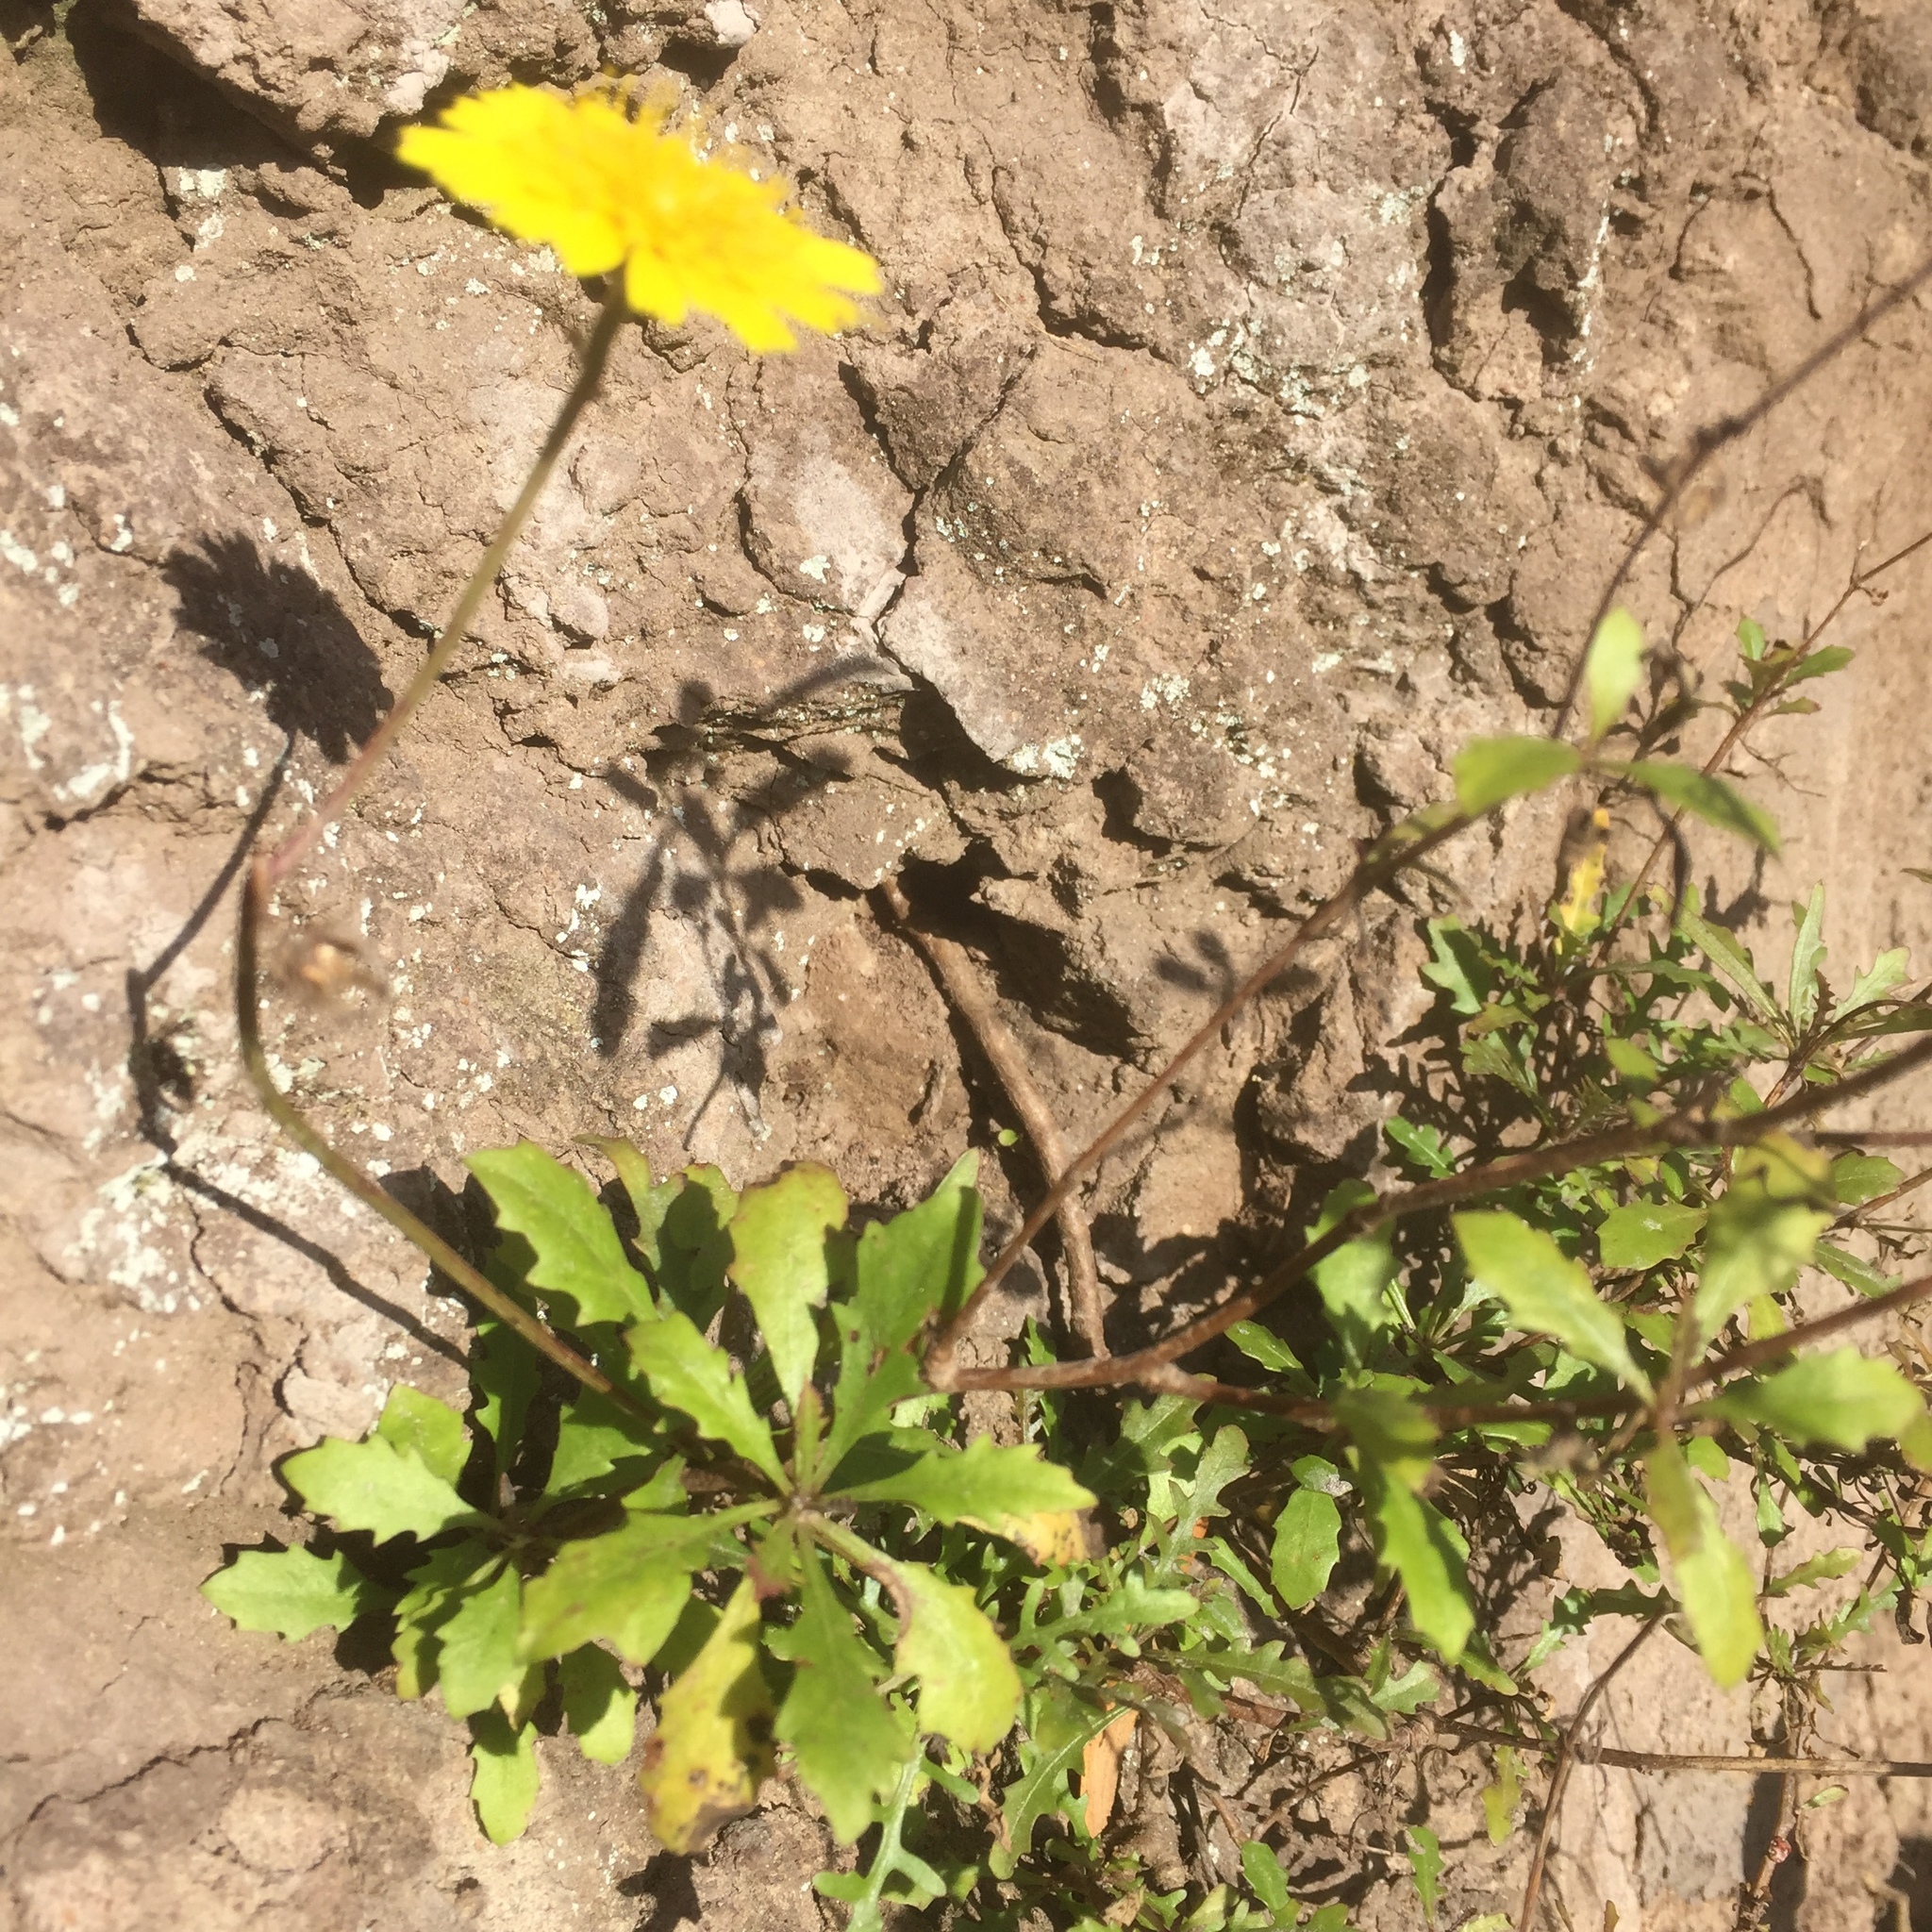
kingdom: Plantae
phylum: Tracheophyta
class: Magnoliopsida
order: Asterales
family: Asteraceae
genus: Tolpis
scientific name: Tolpis succulenta
